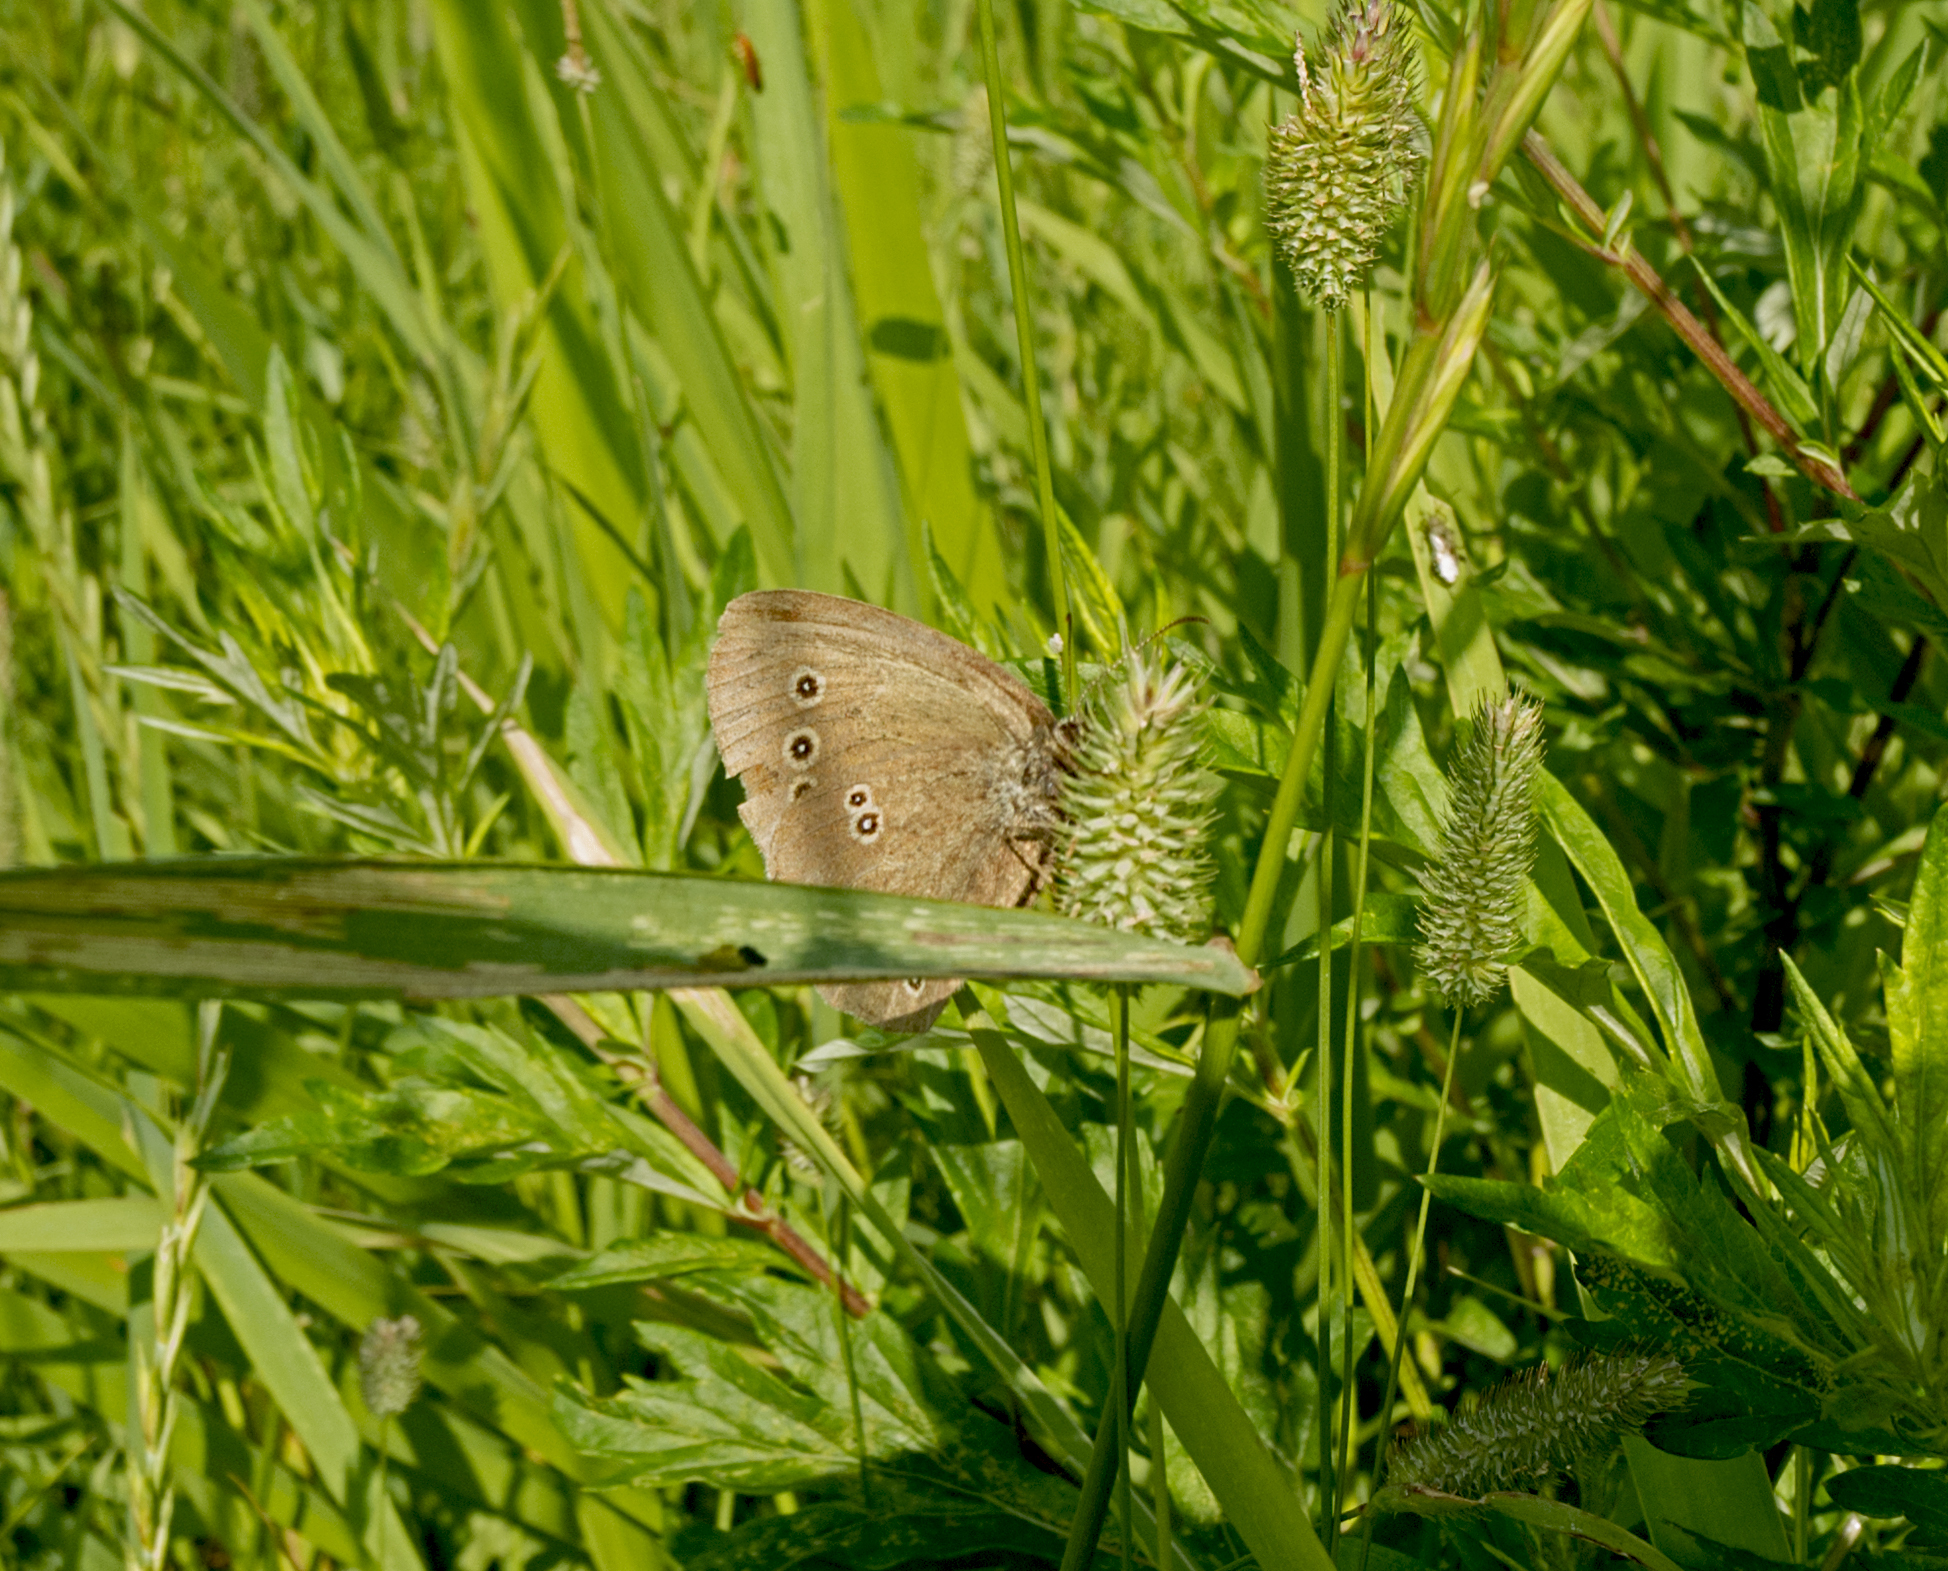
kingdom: Animalia
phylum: Arthropoda
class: Insecta
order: Lepidoptera
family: Nymphalidae
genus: Aphantopus
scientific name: Aphantopus hyperantus
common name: Ringlet
